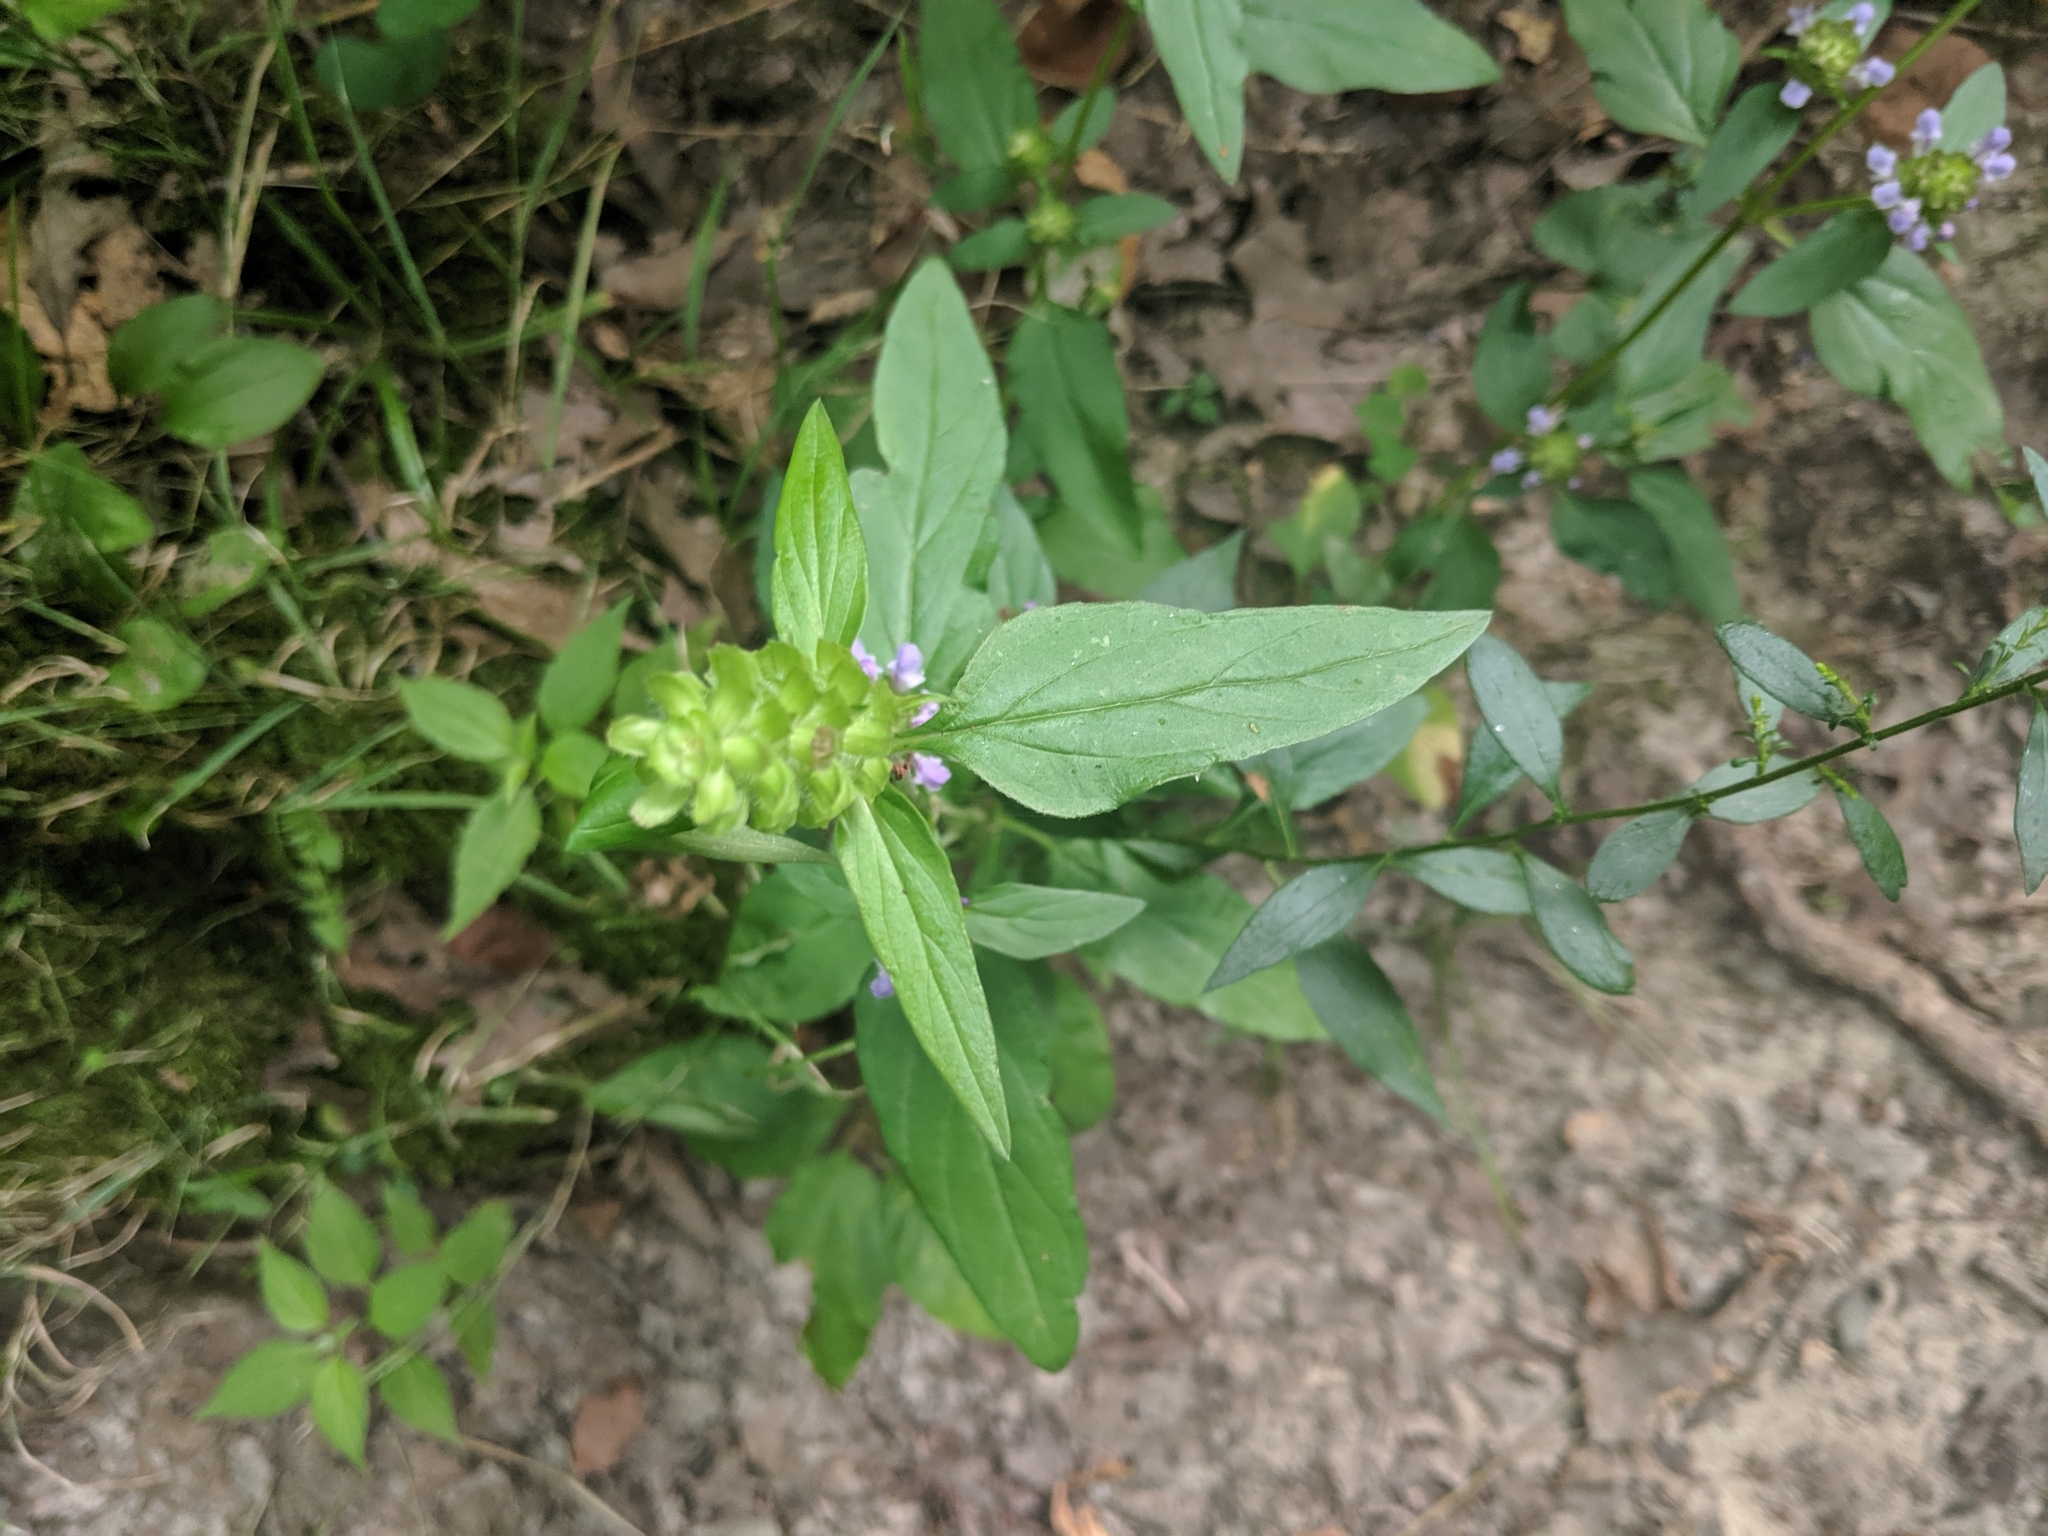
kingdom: Plantae
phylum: Tracheophyta
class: Magnoliopsida
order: Lamiales
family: Lamiaceae
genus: Prunella
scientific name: Prunella vulgaris
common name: Heal-all
